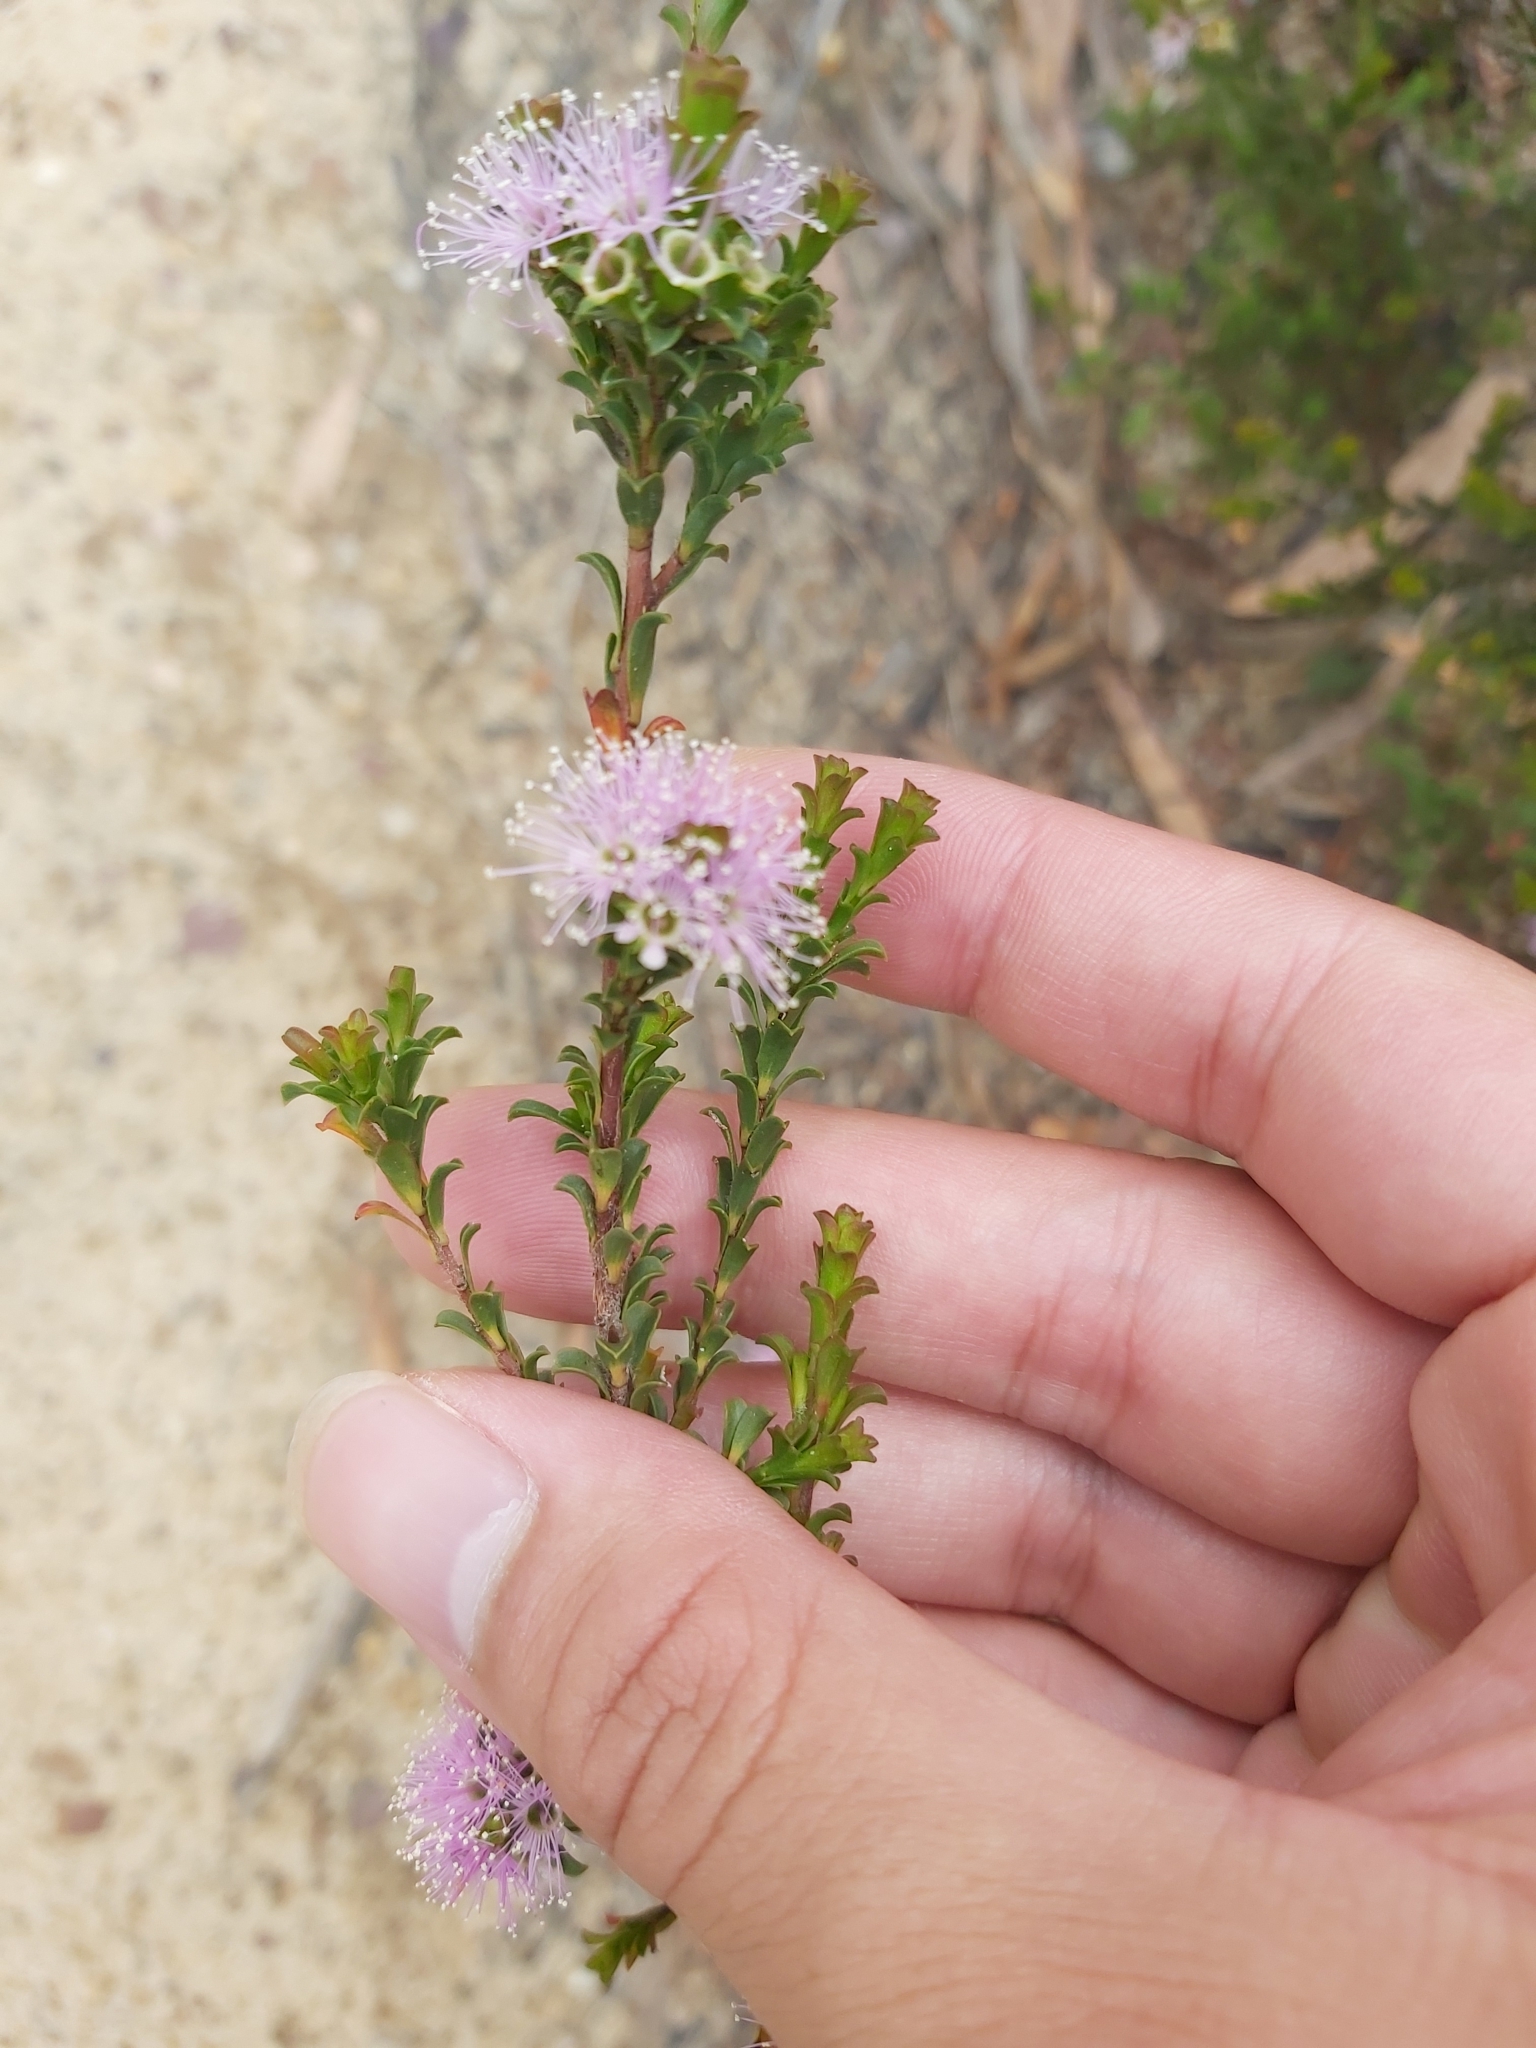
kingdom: Plantae
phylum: Tracheophyta
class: Magnoliopsida
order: Myrtales
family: Myrtaceae
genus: Kunzea
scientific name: Kunzea capitata
